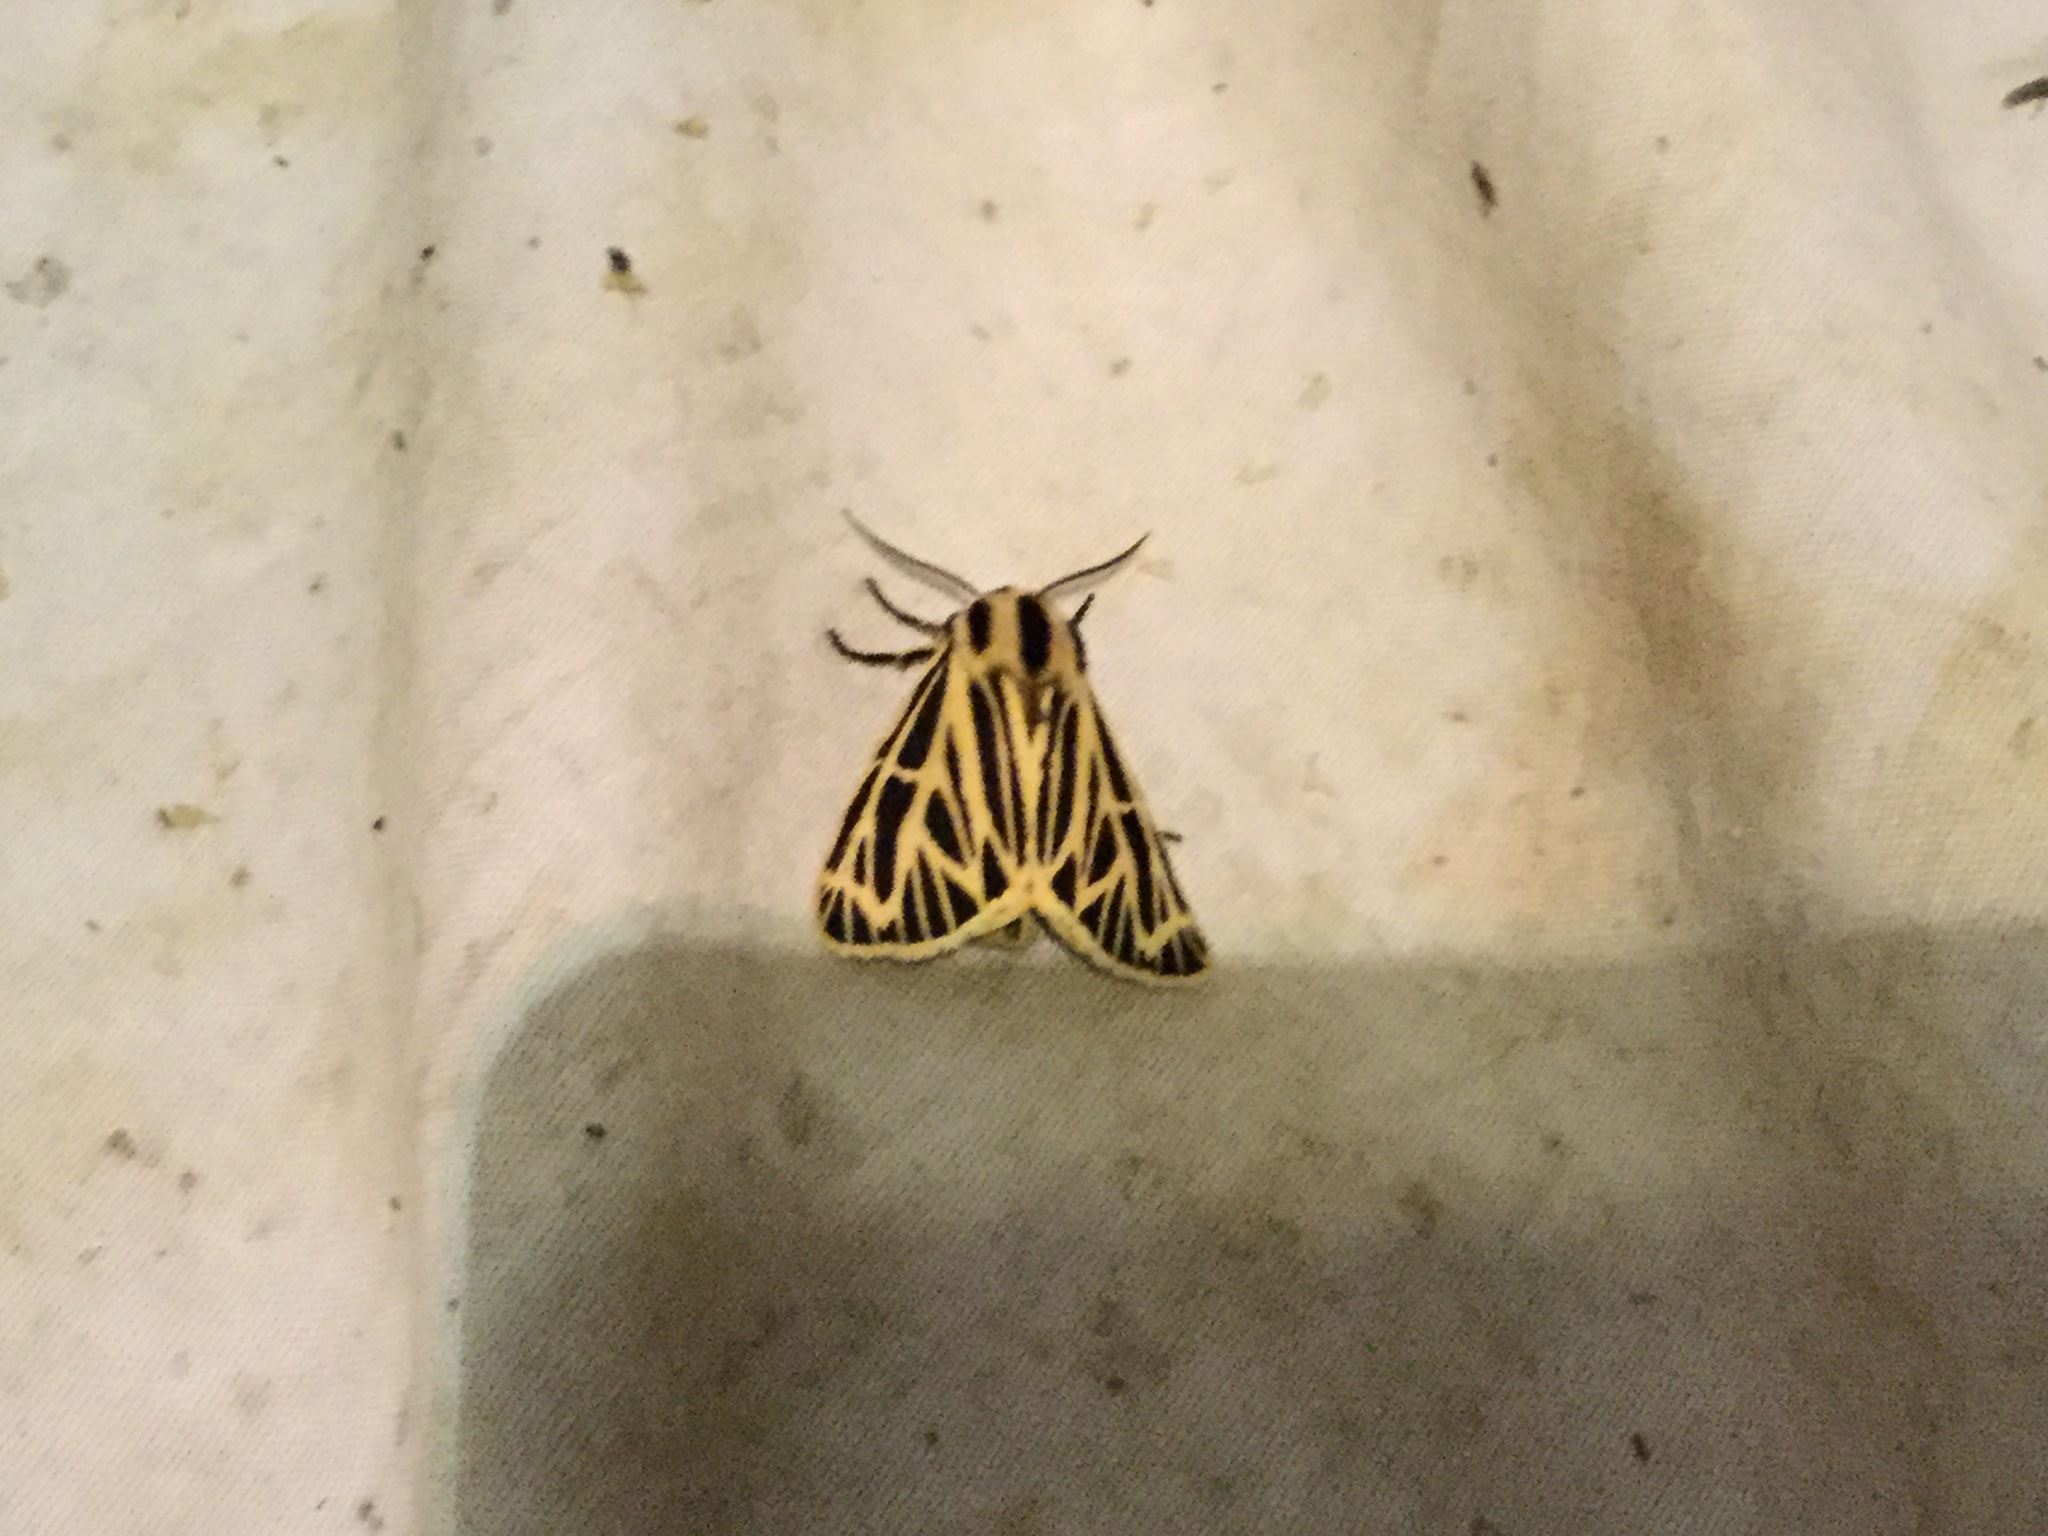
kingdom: Animalia
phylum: Arthropoda
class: Insecta
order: Lepidoptera
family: Erebidae
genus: Grammia
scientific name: Grammia virguncula
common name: Little tiger moth
